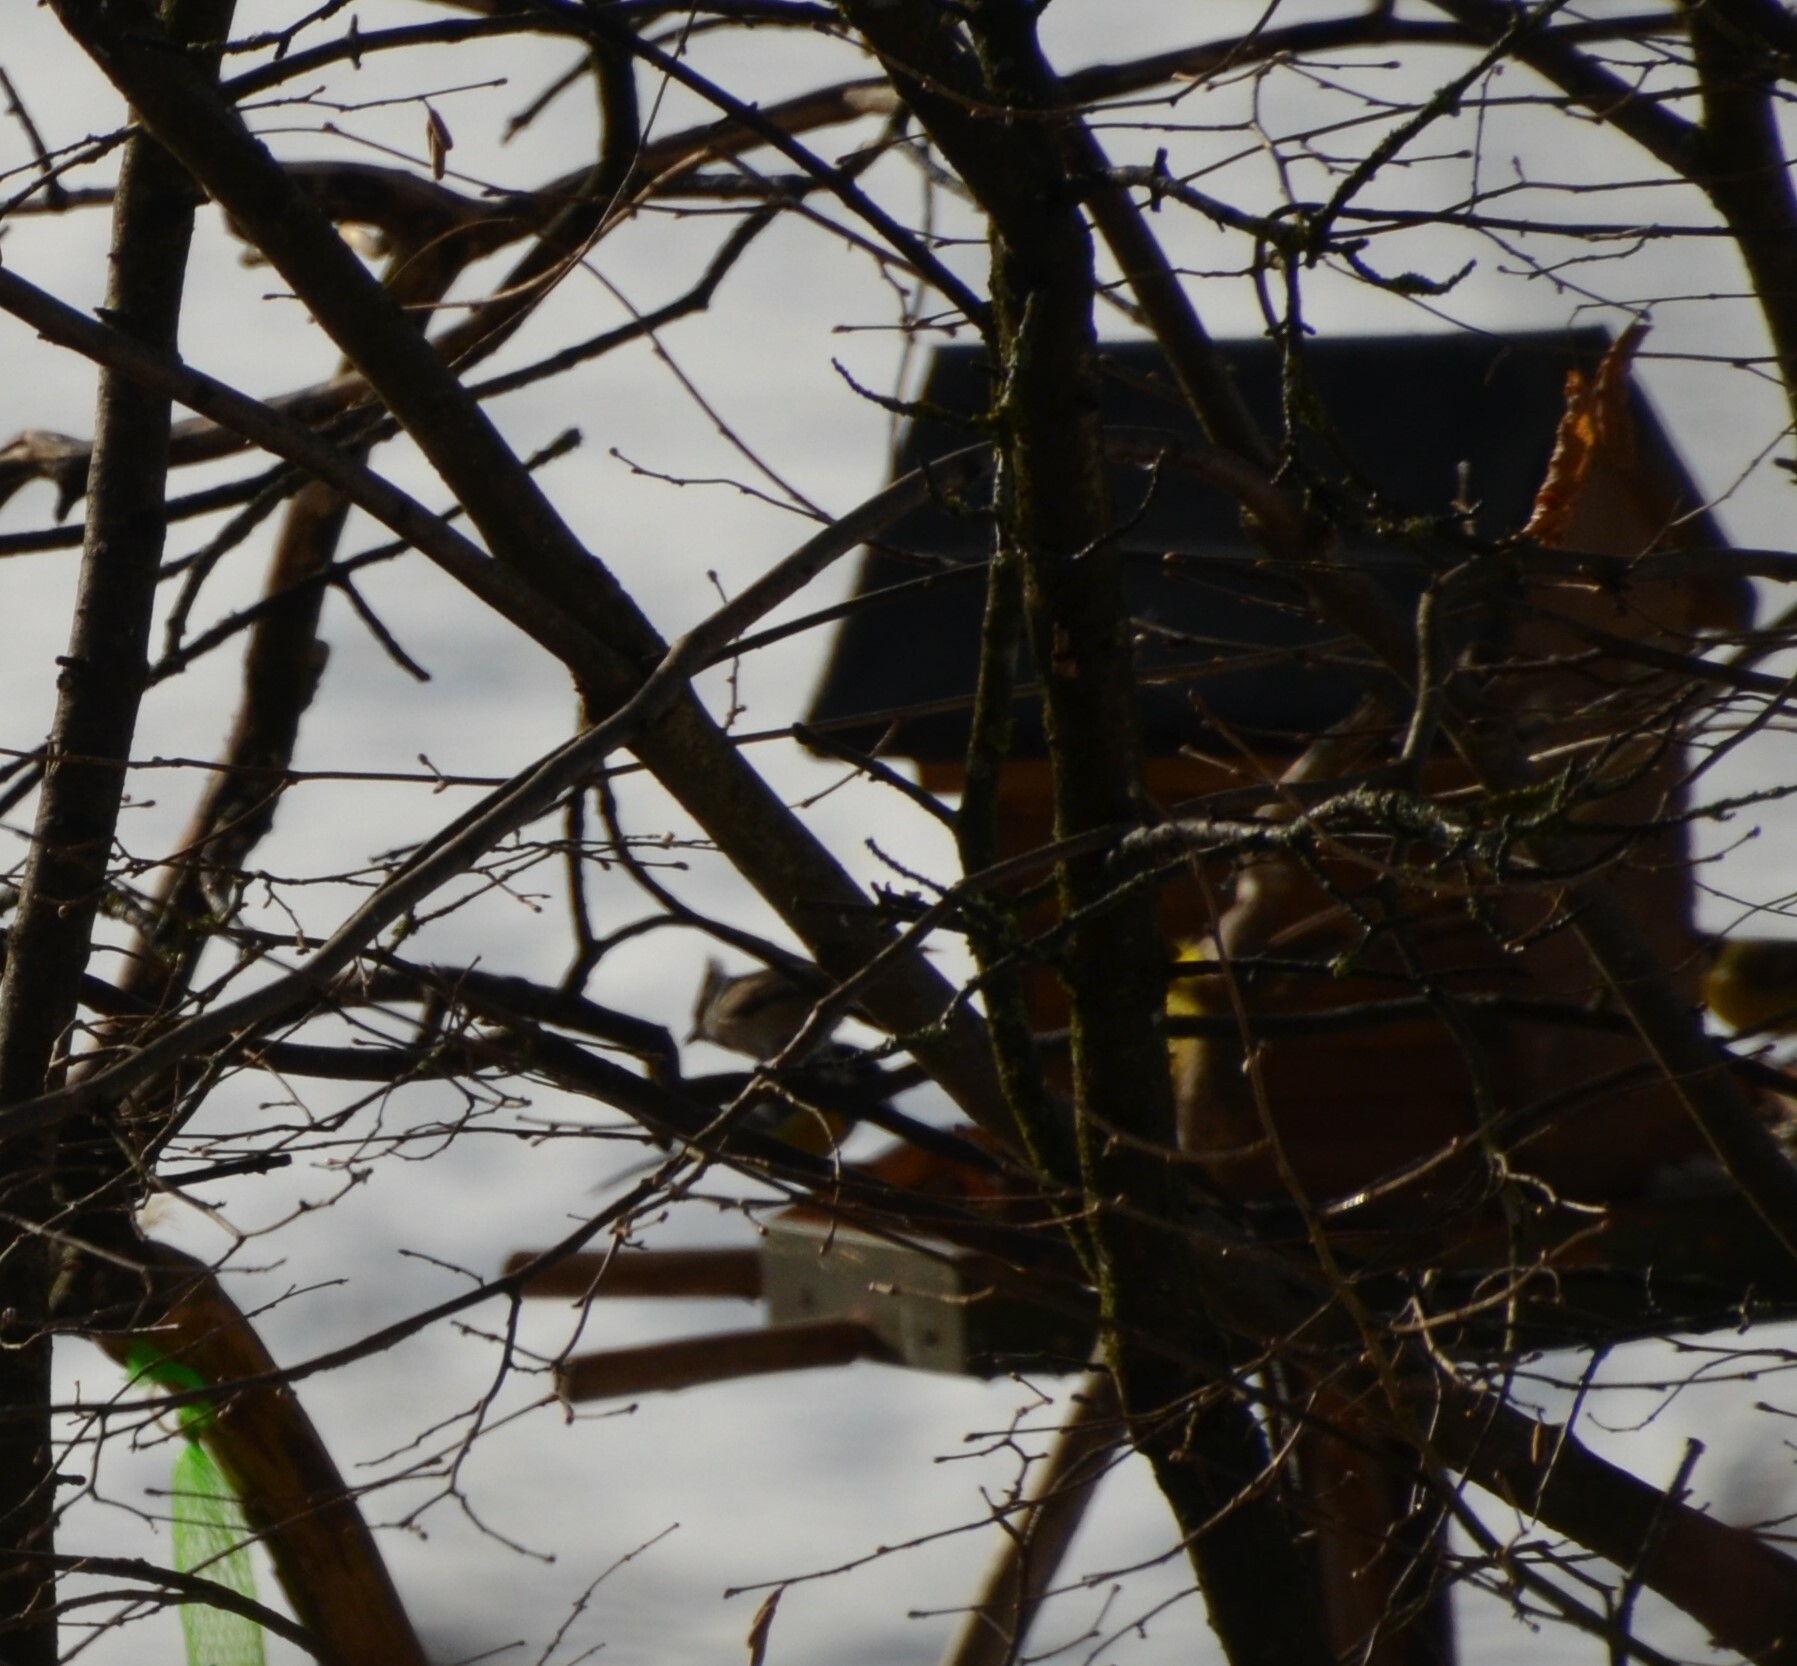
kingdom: Animalia
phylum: Chordata
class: Aves
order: Passeriformes
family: Paridae
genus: Lophophanes
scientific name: Lophophanes cristatus
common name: European crested tit
